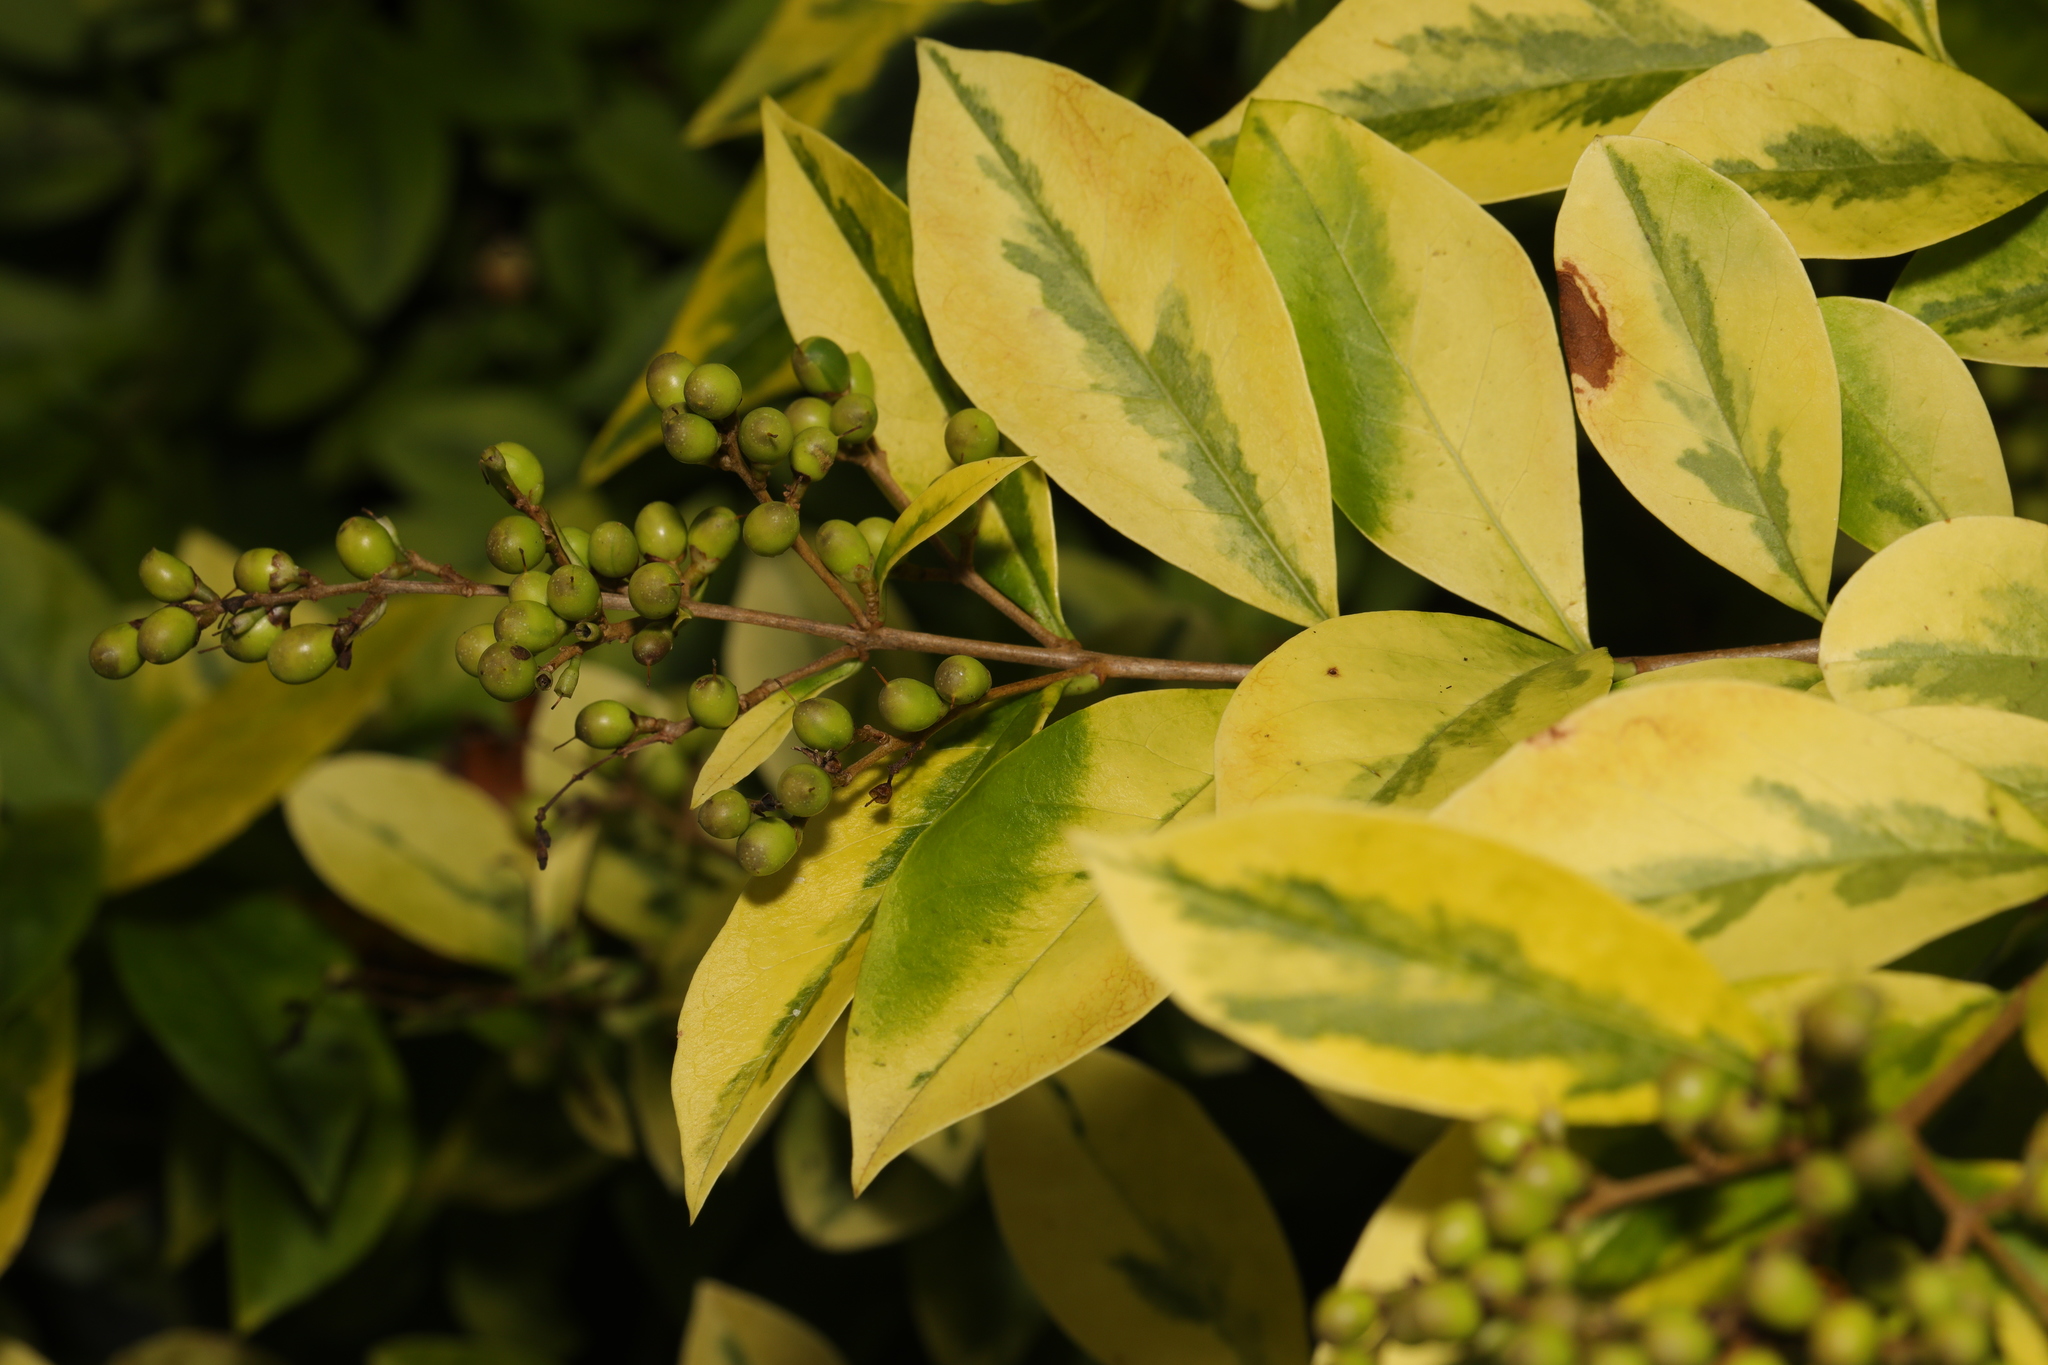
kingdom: Plantae
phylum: Tracheophyta
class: Magnoliopsida
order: Lamiales
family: Oleaceae
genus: Ligustrum
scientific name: Ligustrum ovalifolium
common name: California privet
